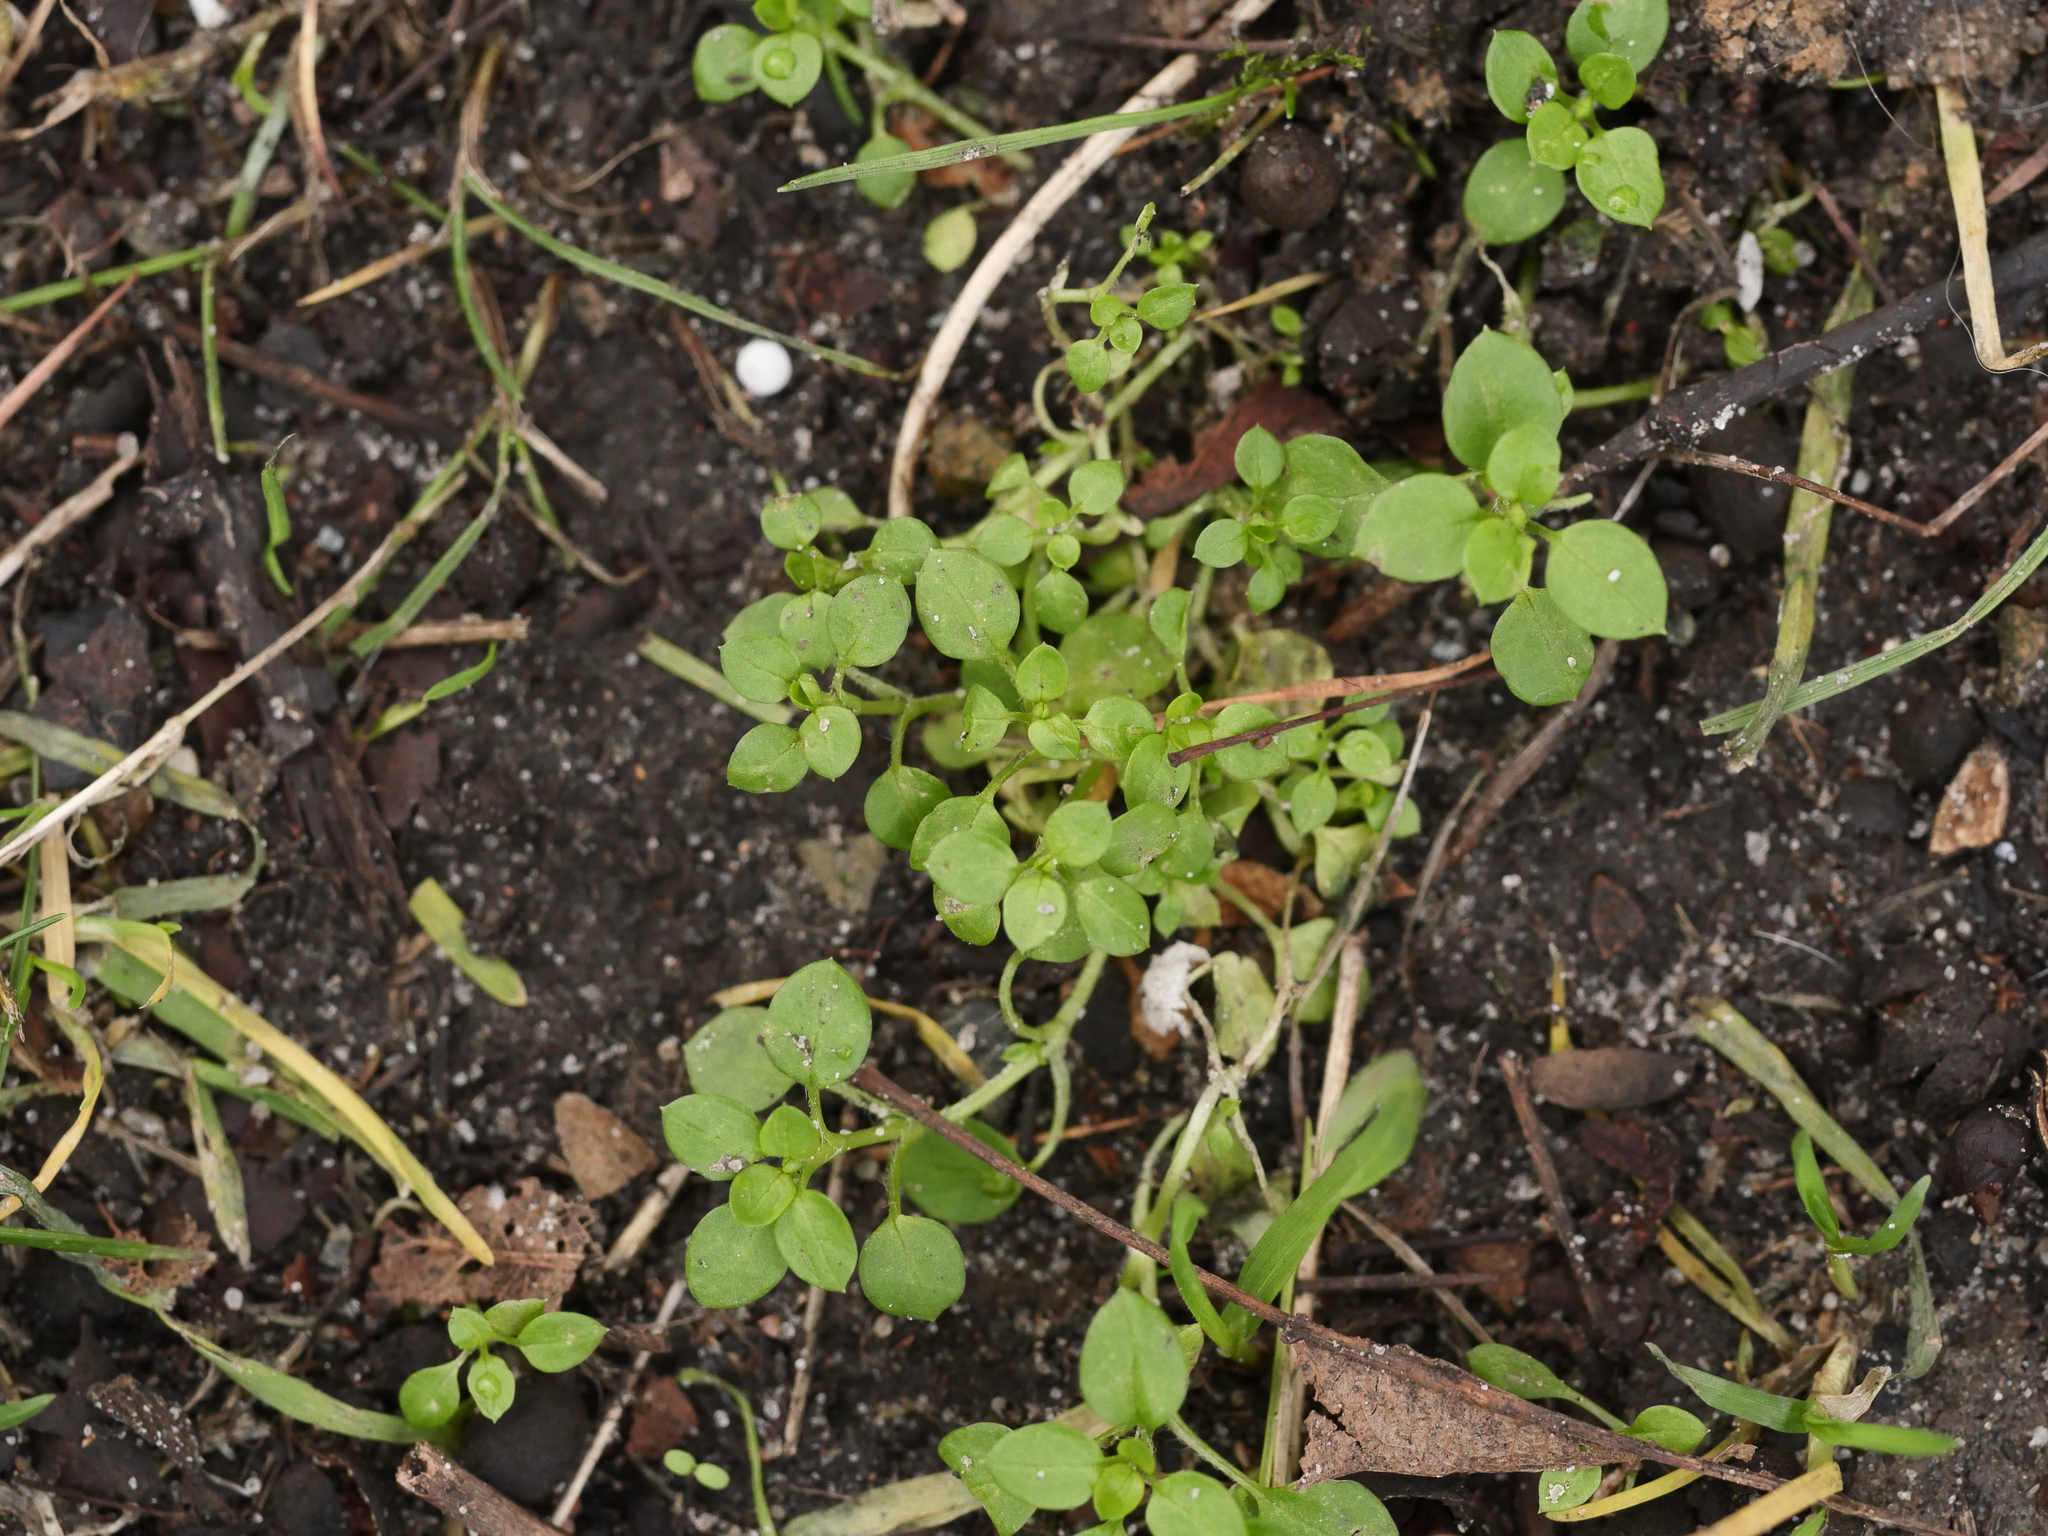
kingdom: Plantae
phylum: Tracheophyta
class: Magnoliopsida
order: Caryophyllales
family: Caryophyllaceae
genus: Stellaria
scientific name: Stellaria media
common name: Common chickweed
